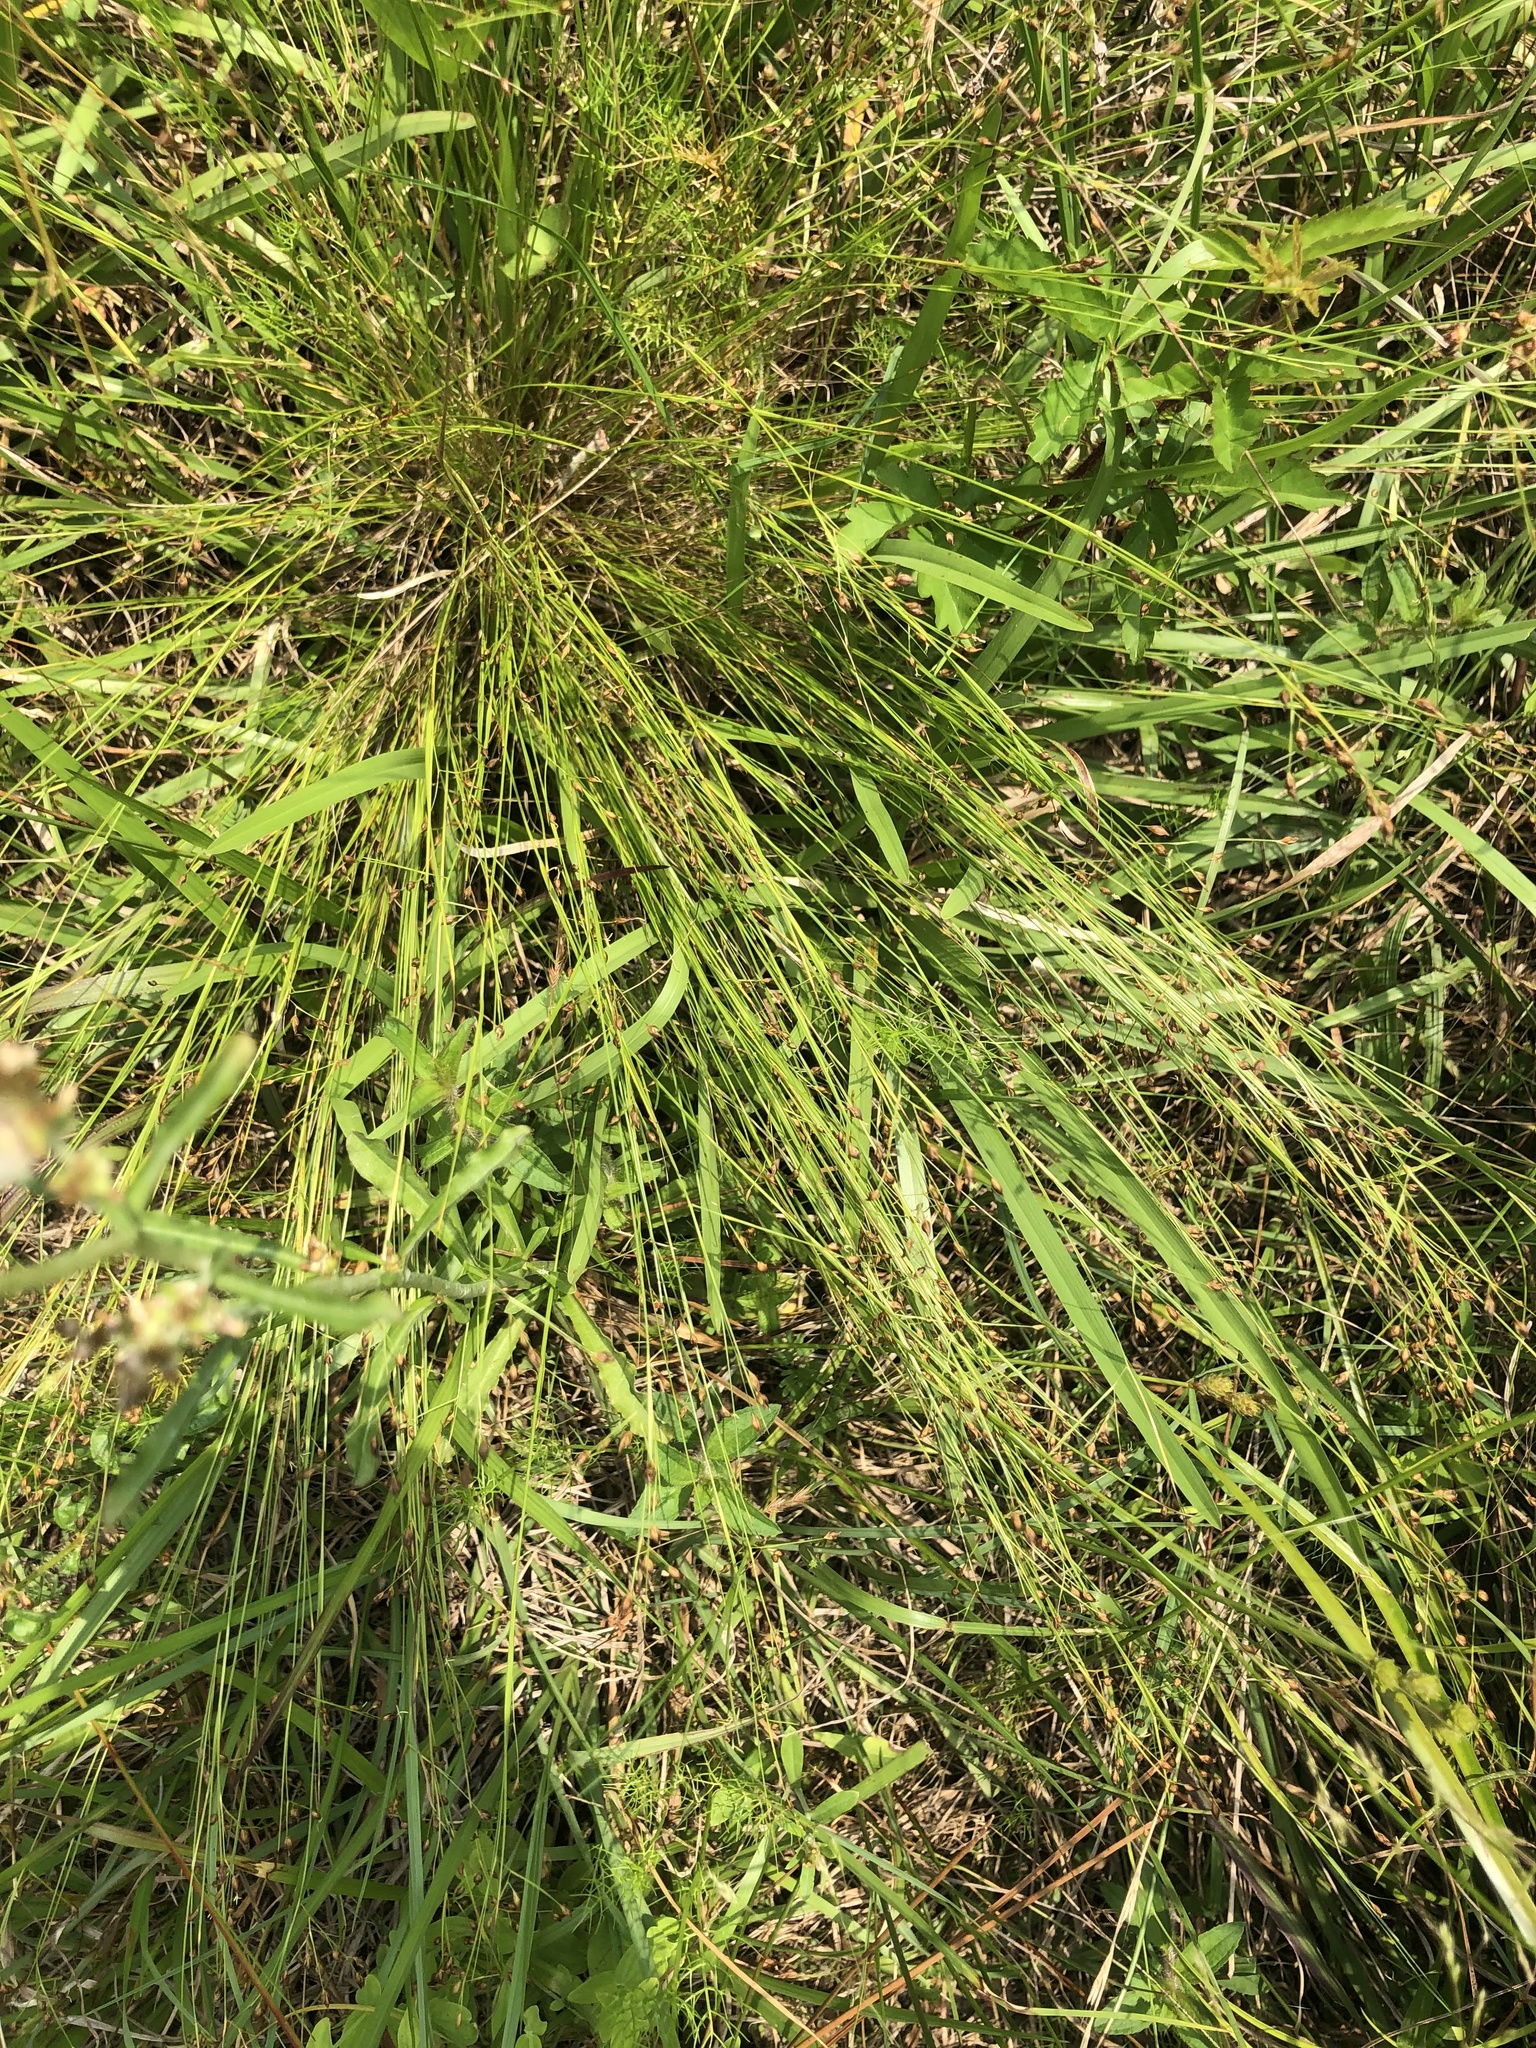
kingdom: Plantae
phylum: Tracheophyta
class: Liliopsida
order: Poales
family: Cyperaceae
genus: Rhynchospora
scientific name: Rhynchospora rariflora
